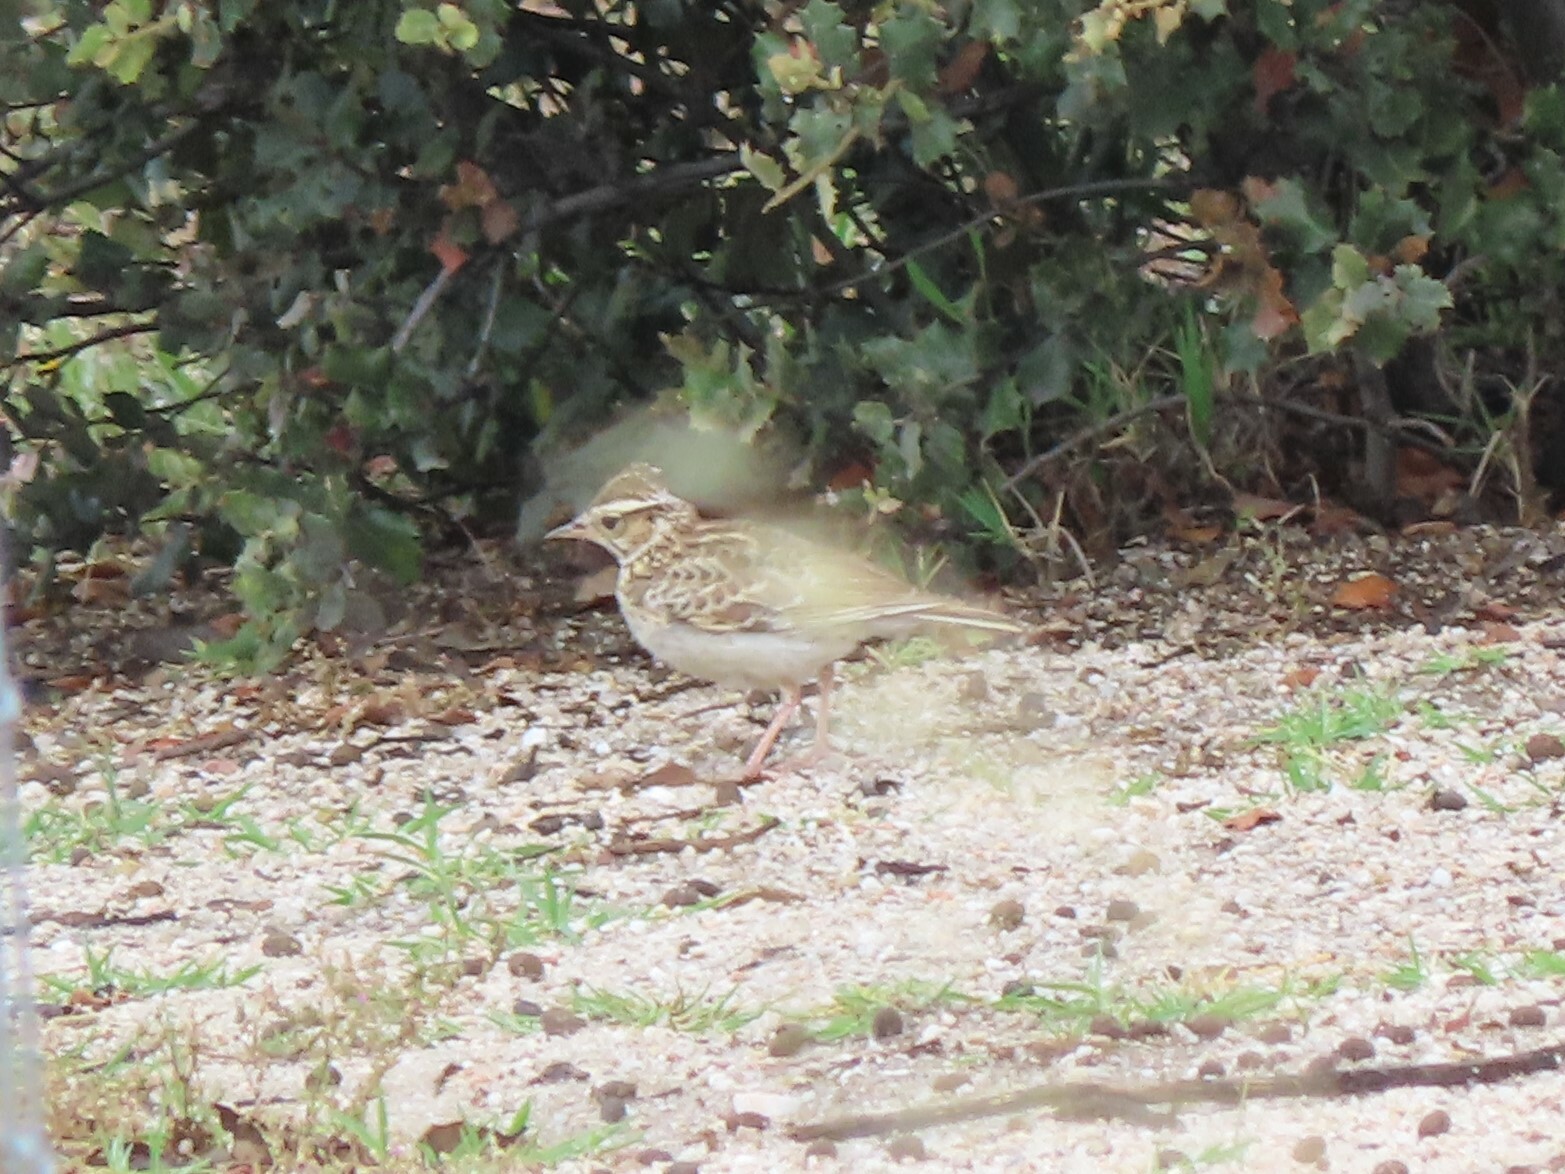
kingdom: Animalia
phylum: Chordata
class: Aves
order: Passeriformes
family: Alaudidae
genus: Lullula
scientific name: Lullula arborea
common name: Woodlark
